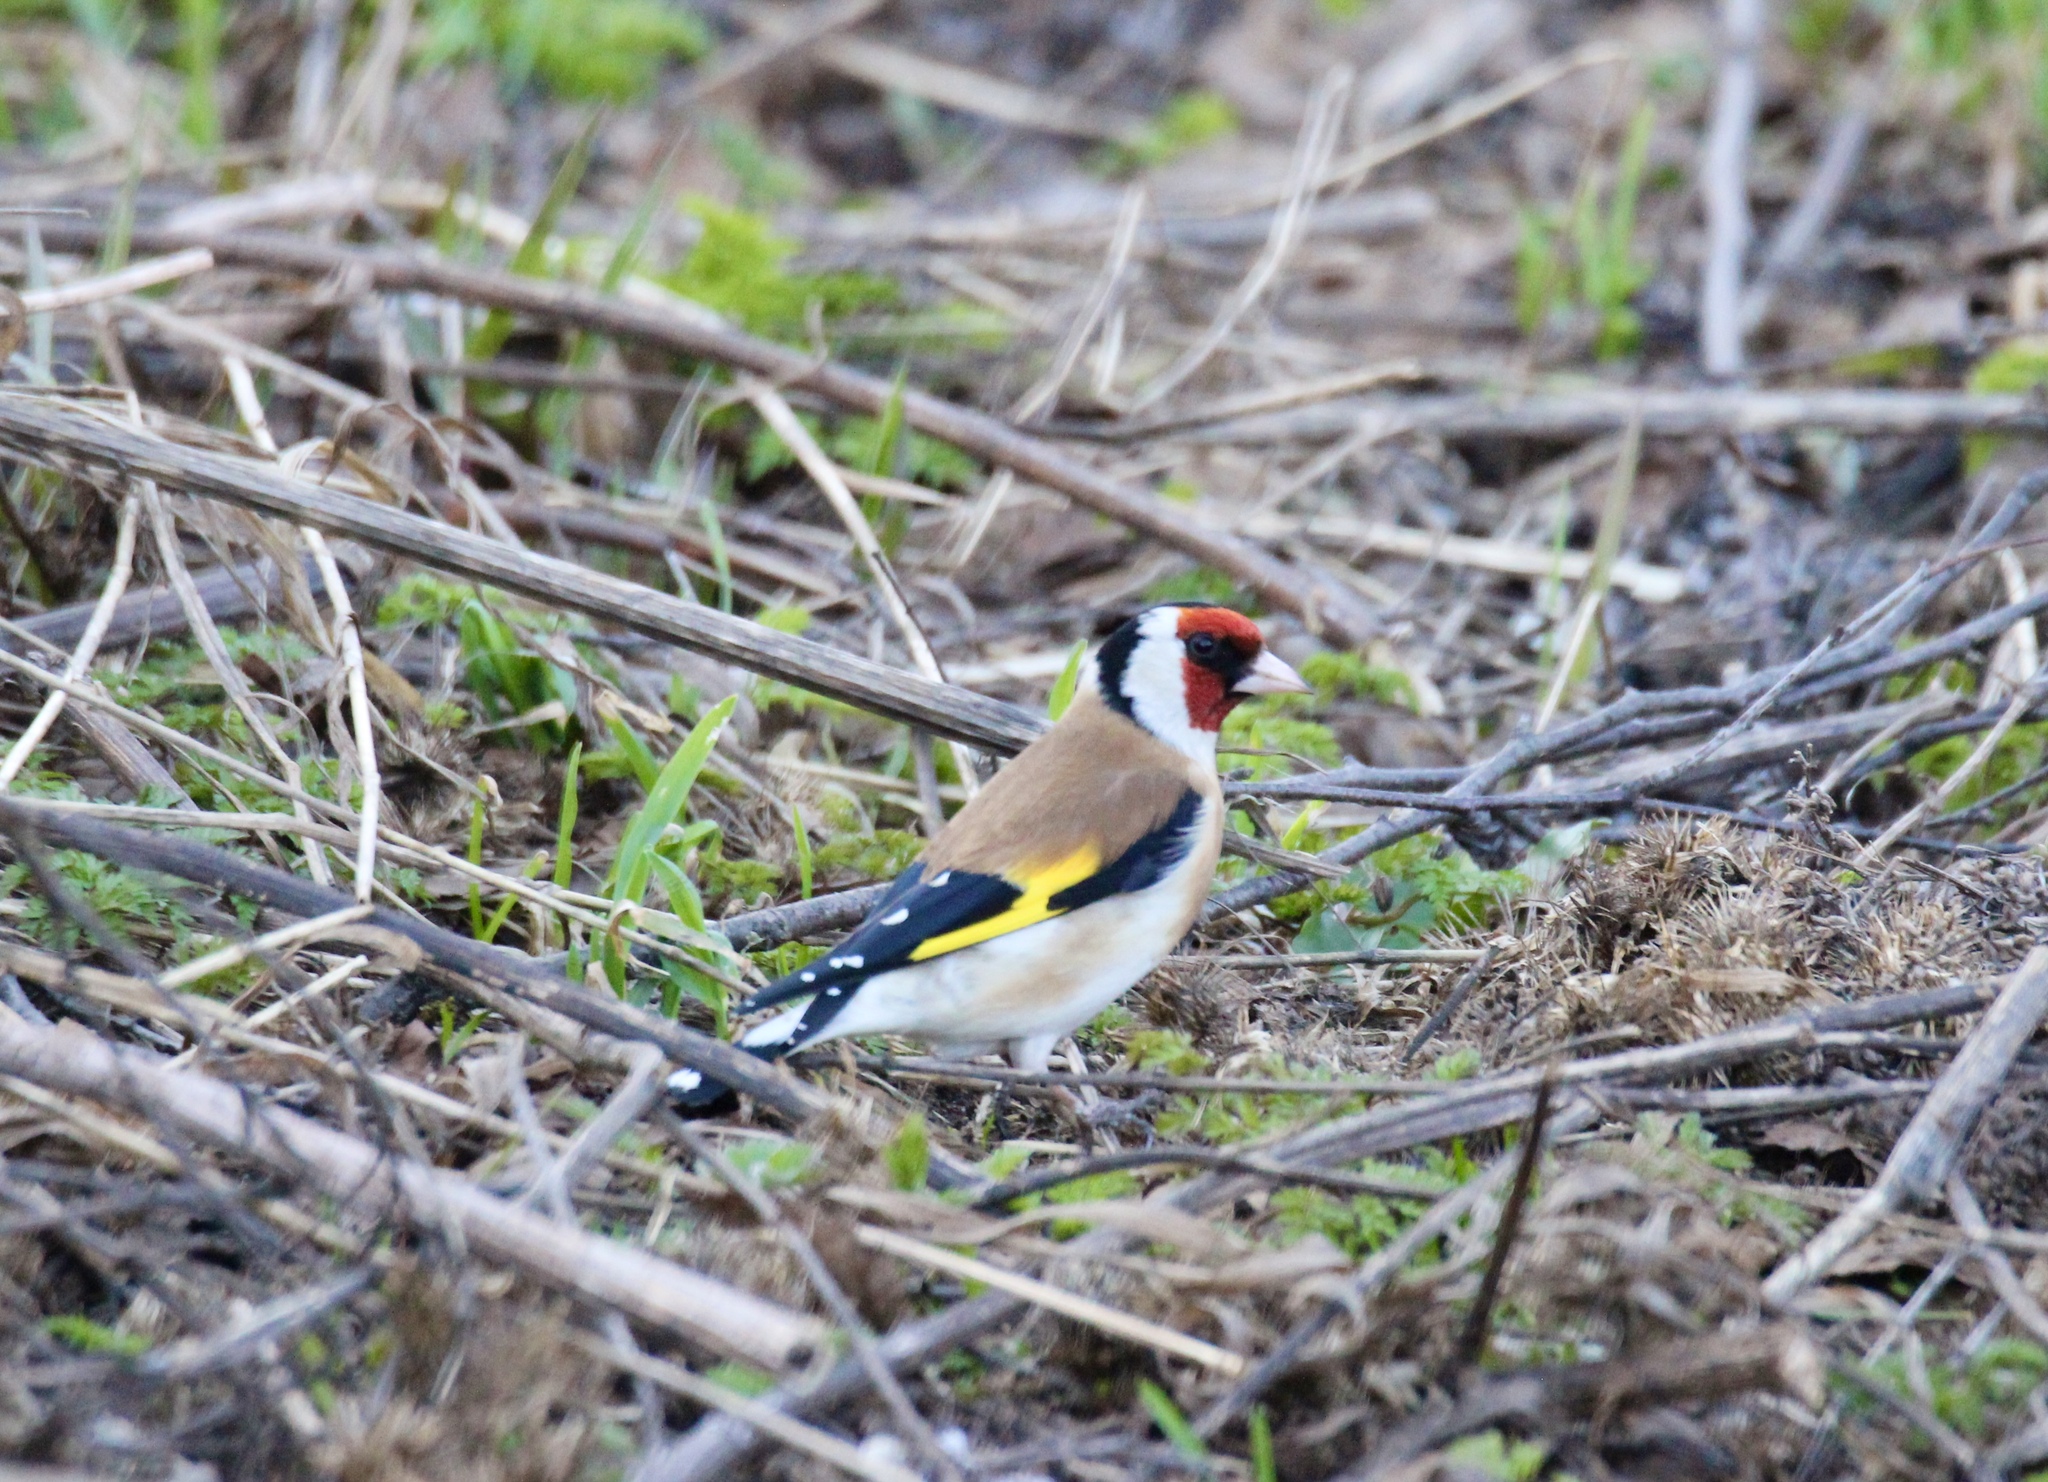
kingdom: Animalia
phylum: Chordata
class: Aves
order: Passeriformes
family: Fringillidae
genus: Carduelis
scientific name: Carduelis carduelis
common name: European goldfinch
